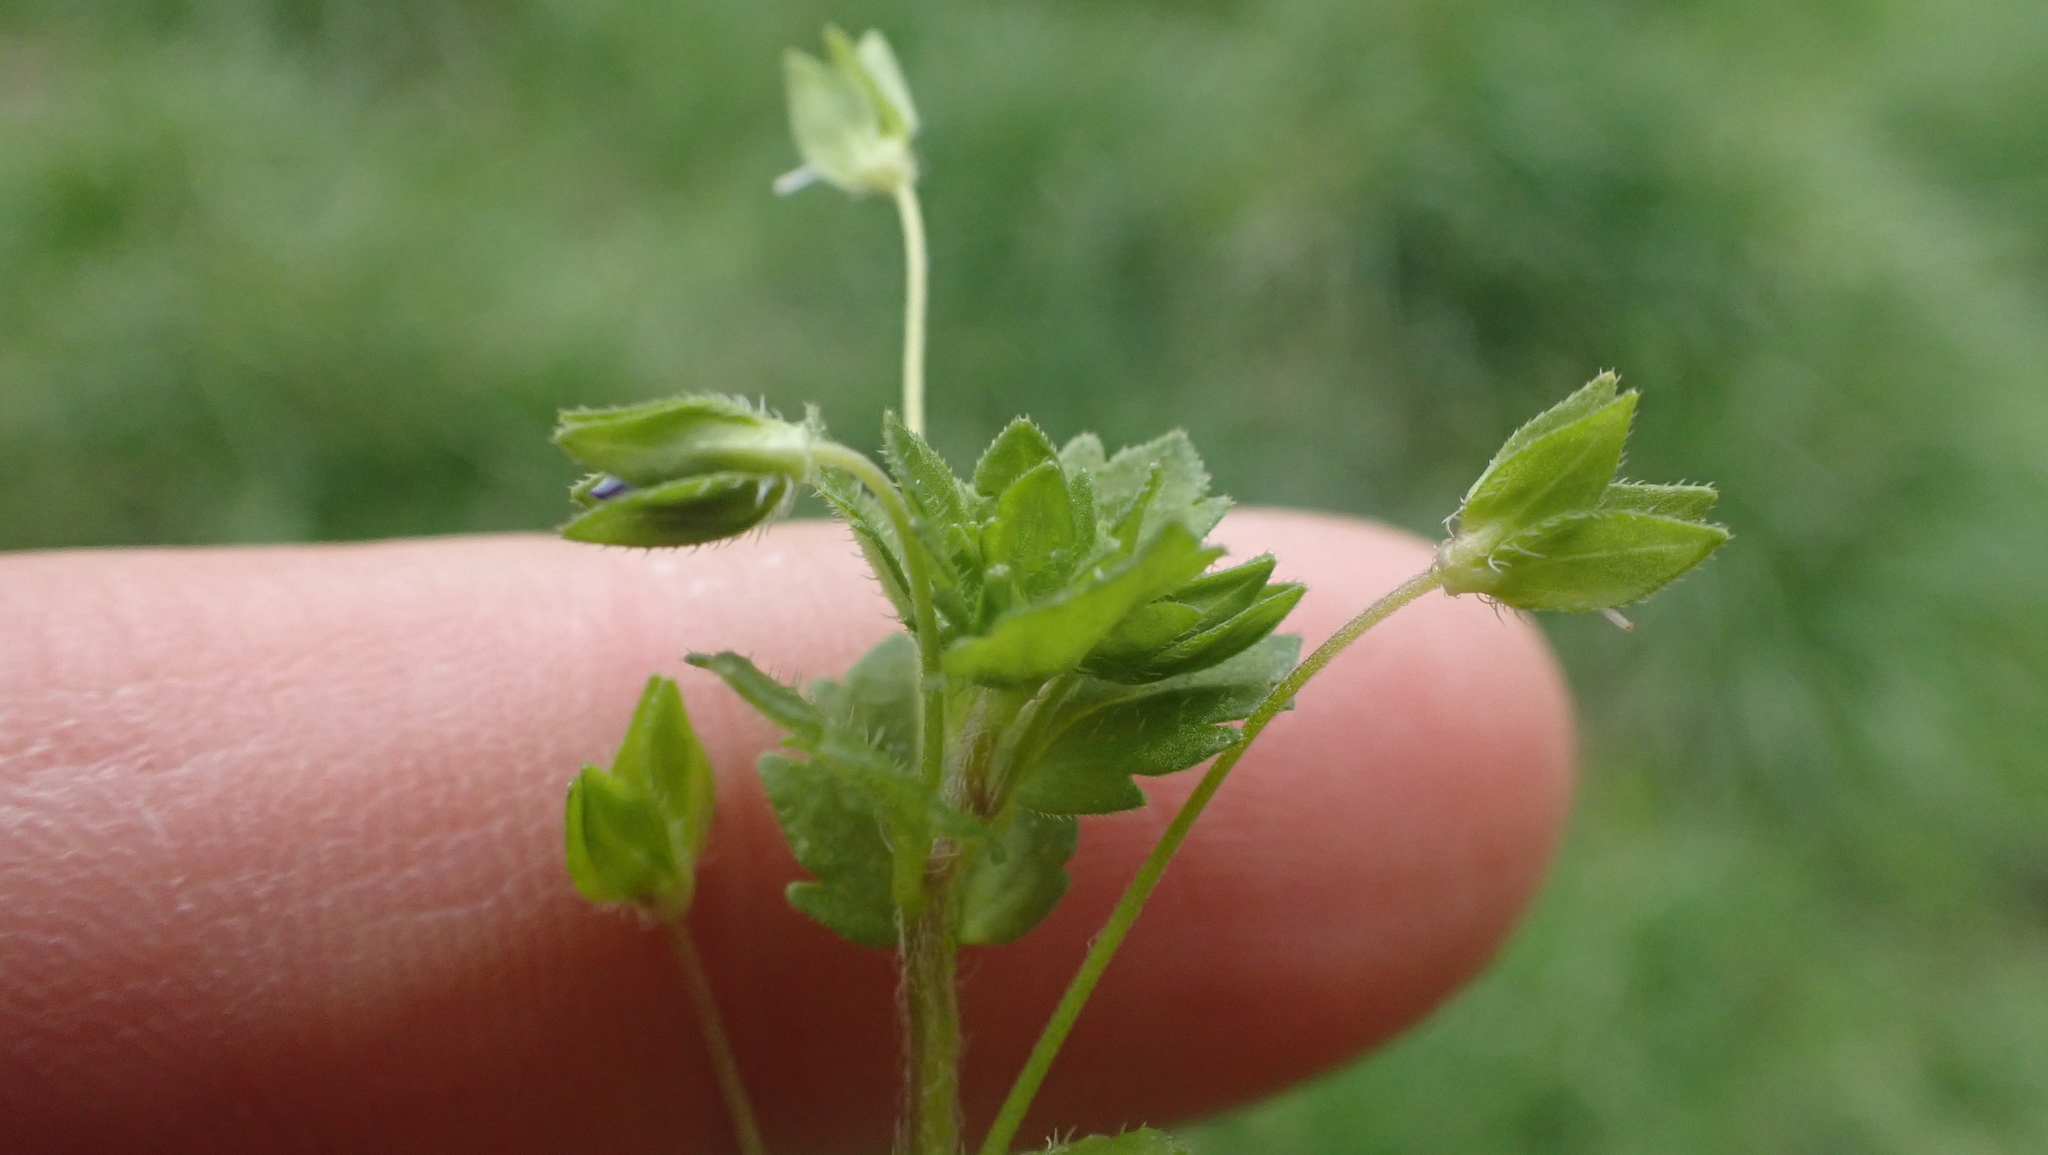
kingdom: Plantae
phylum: Tracheophyta
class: Magnoliopsida
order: Lamiales
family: Plantaginaceae
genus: Veronica
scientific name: Veronica persica
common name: Common field-speedwell
